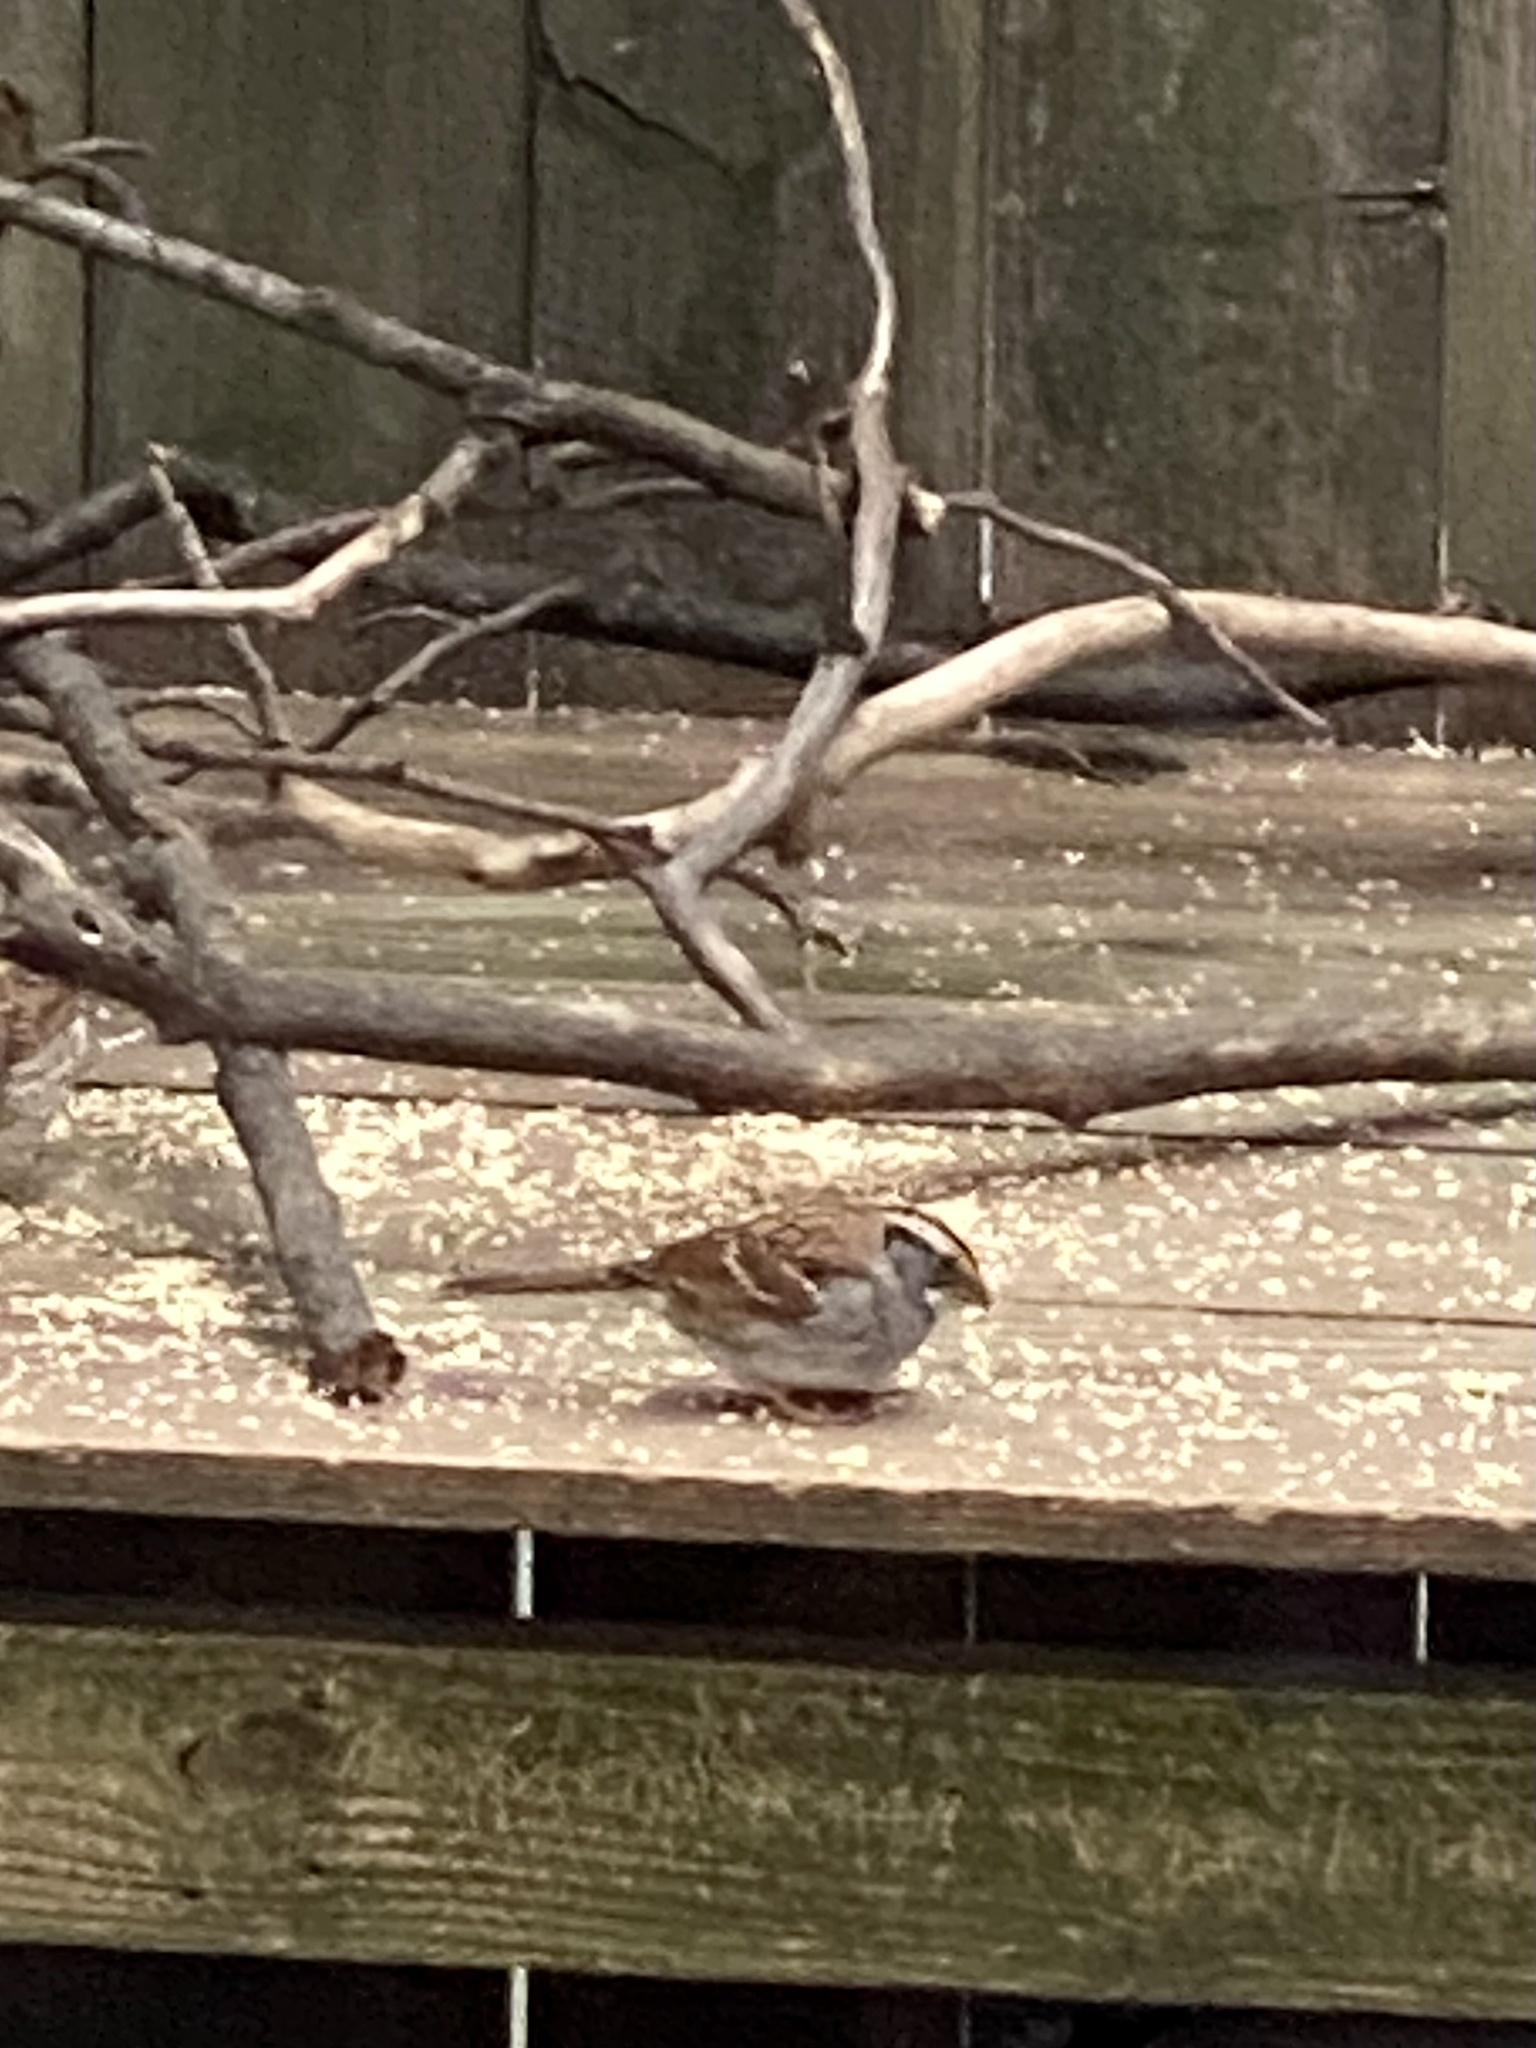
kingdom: Animalia
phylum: Chordata
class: Aves
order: Passeriformes
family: Passerellidae
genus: Zonotrichia
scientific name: Zonotrichia albicollis
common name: White-throated sparrow
